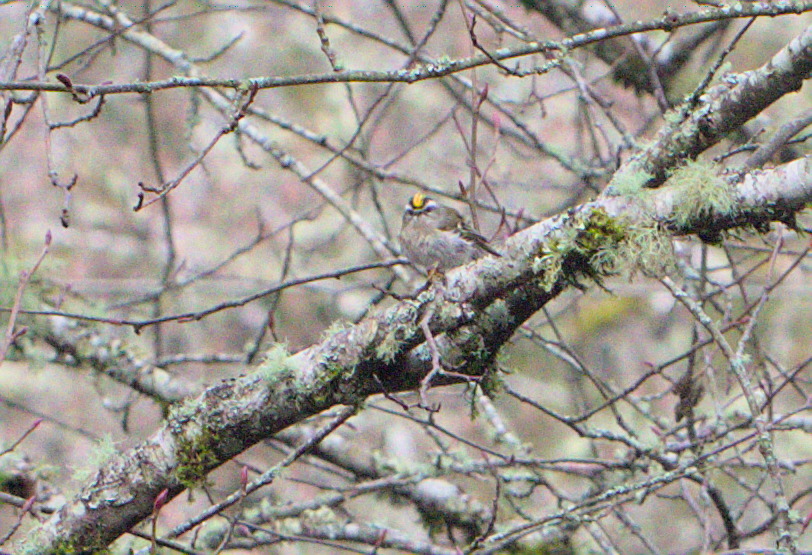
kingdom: Animalia
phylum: Chordata
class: Aves
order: Passeriformes
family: Regulidae
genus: Regulus
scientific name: Regulus satrapa
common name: Golden-crowned kinglet
